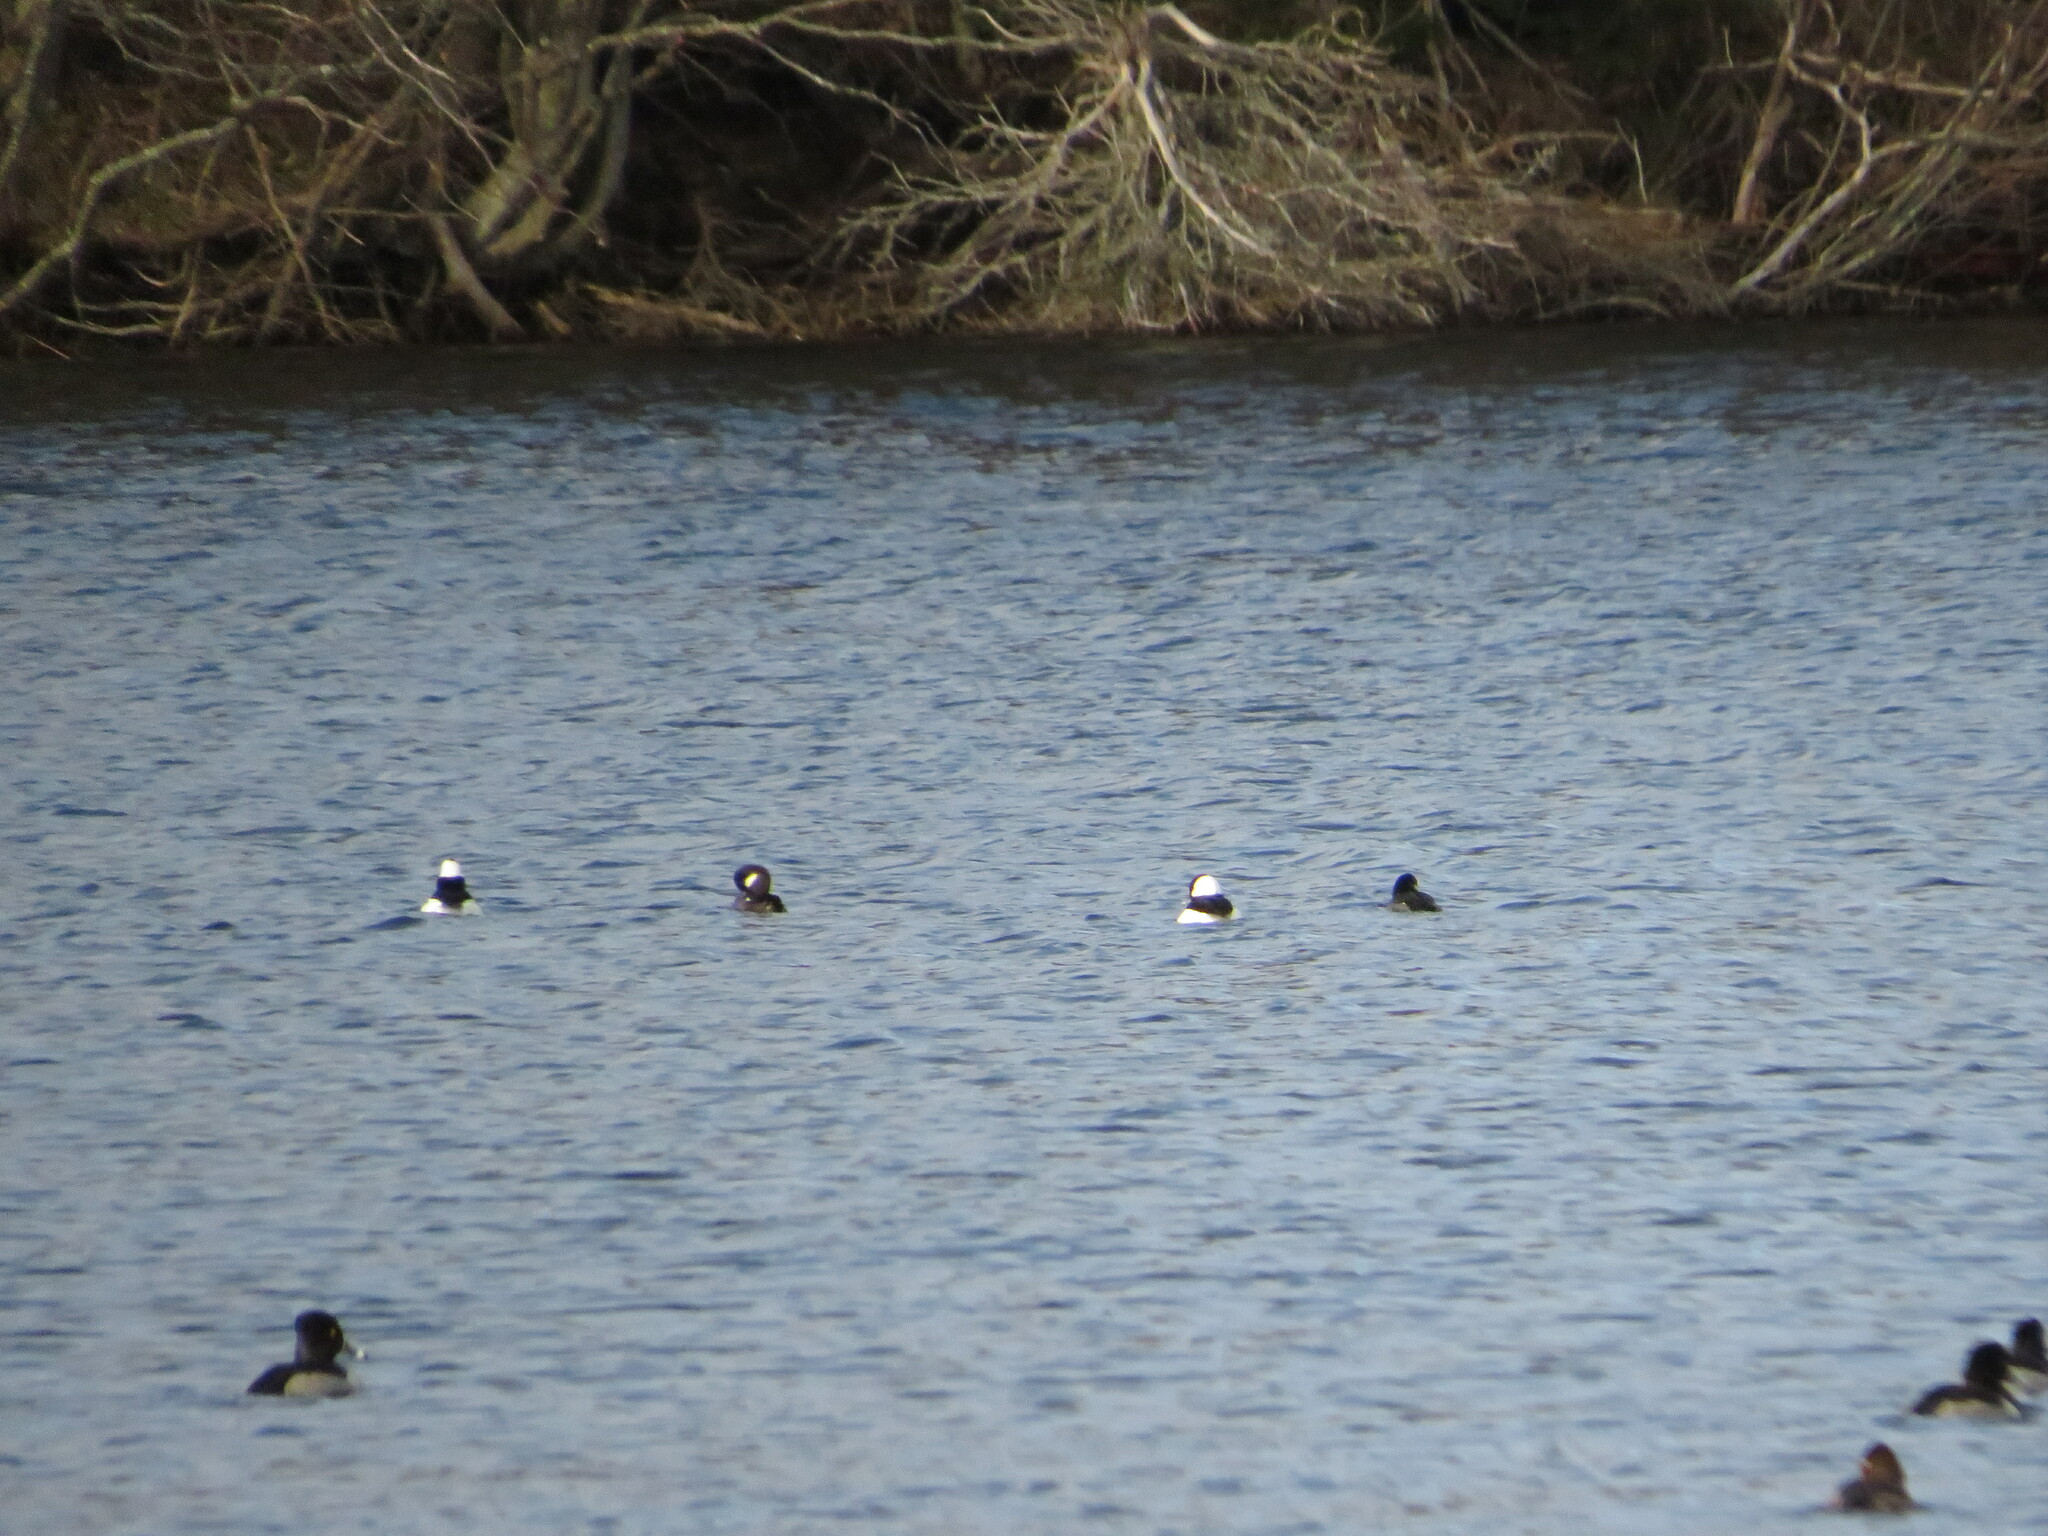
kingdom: Animalia
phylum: Chordata
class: Aves
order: Anseriformes
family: Anatidae
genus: Bucephala
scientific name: Bucephala albeola
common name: Bufflehead
